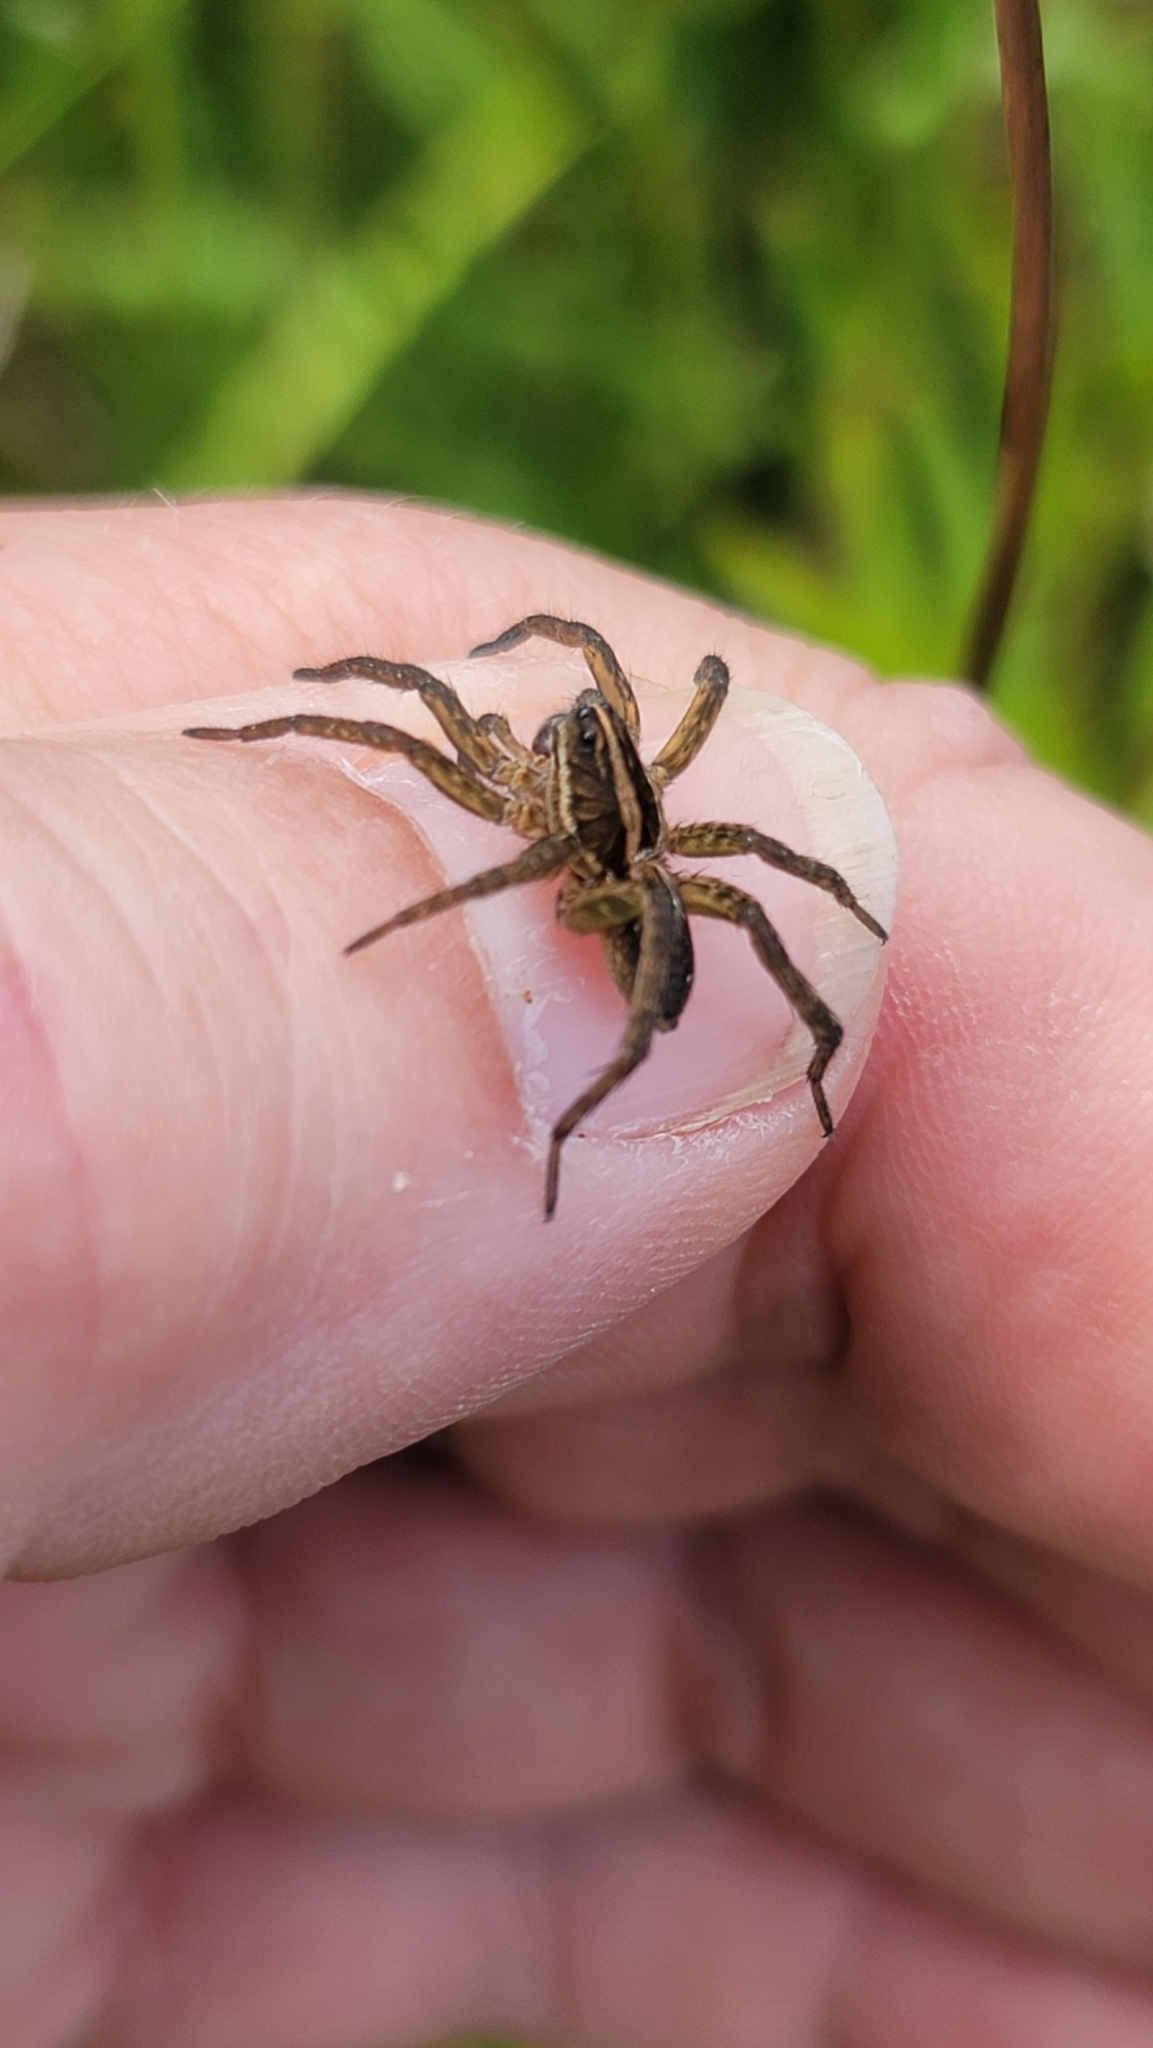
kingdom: Animalia
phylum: Arthropoda
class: Arachnida
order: Araneae
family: Lycosidae
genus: Tigrosa
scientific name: Tigrosa annexa
